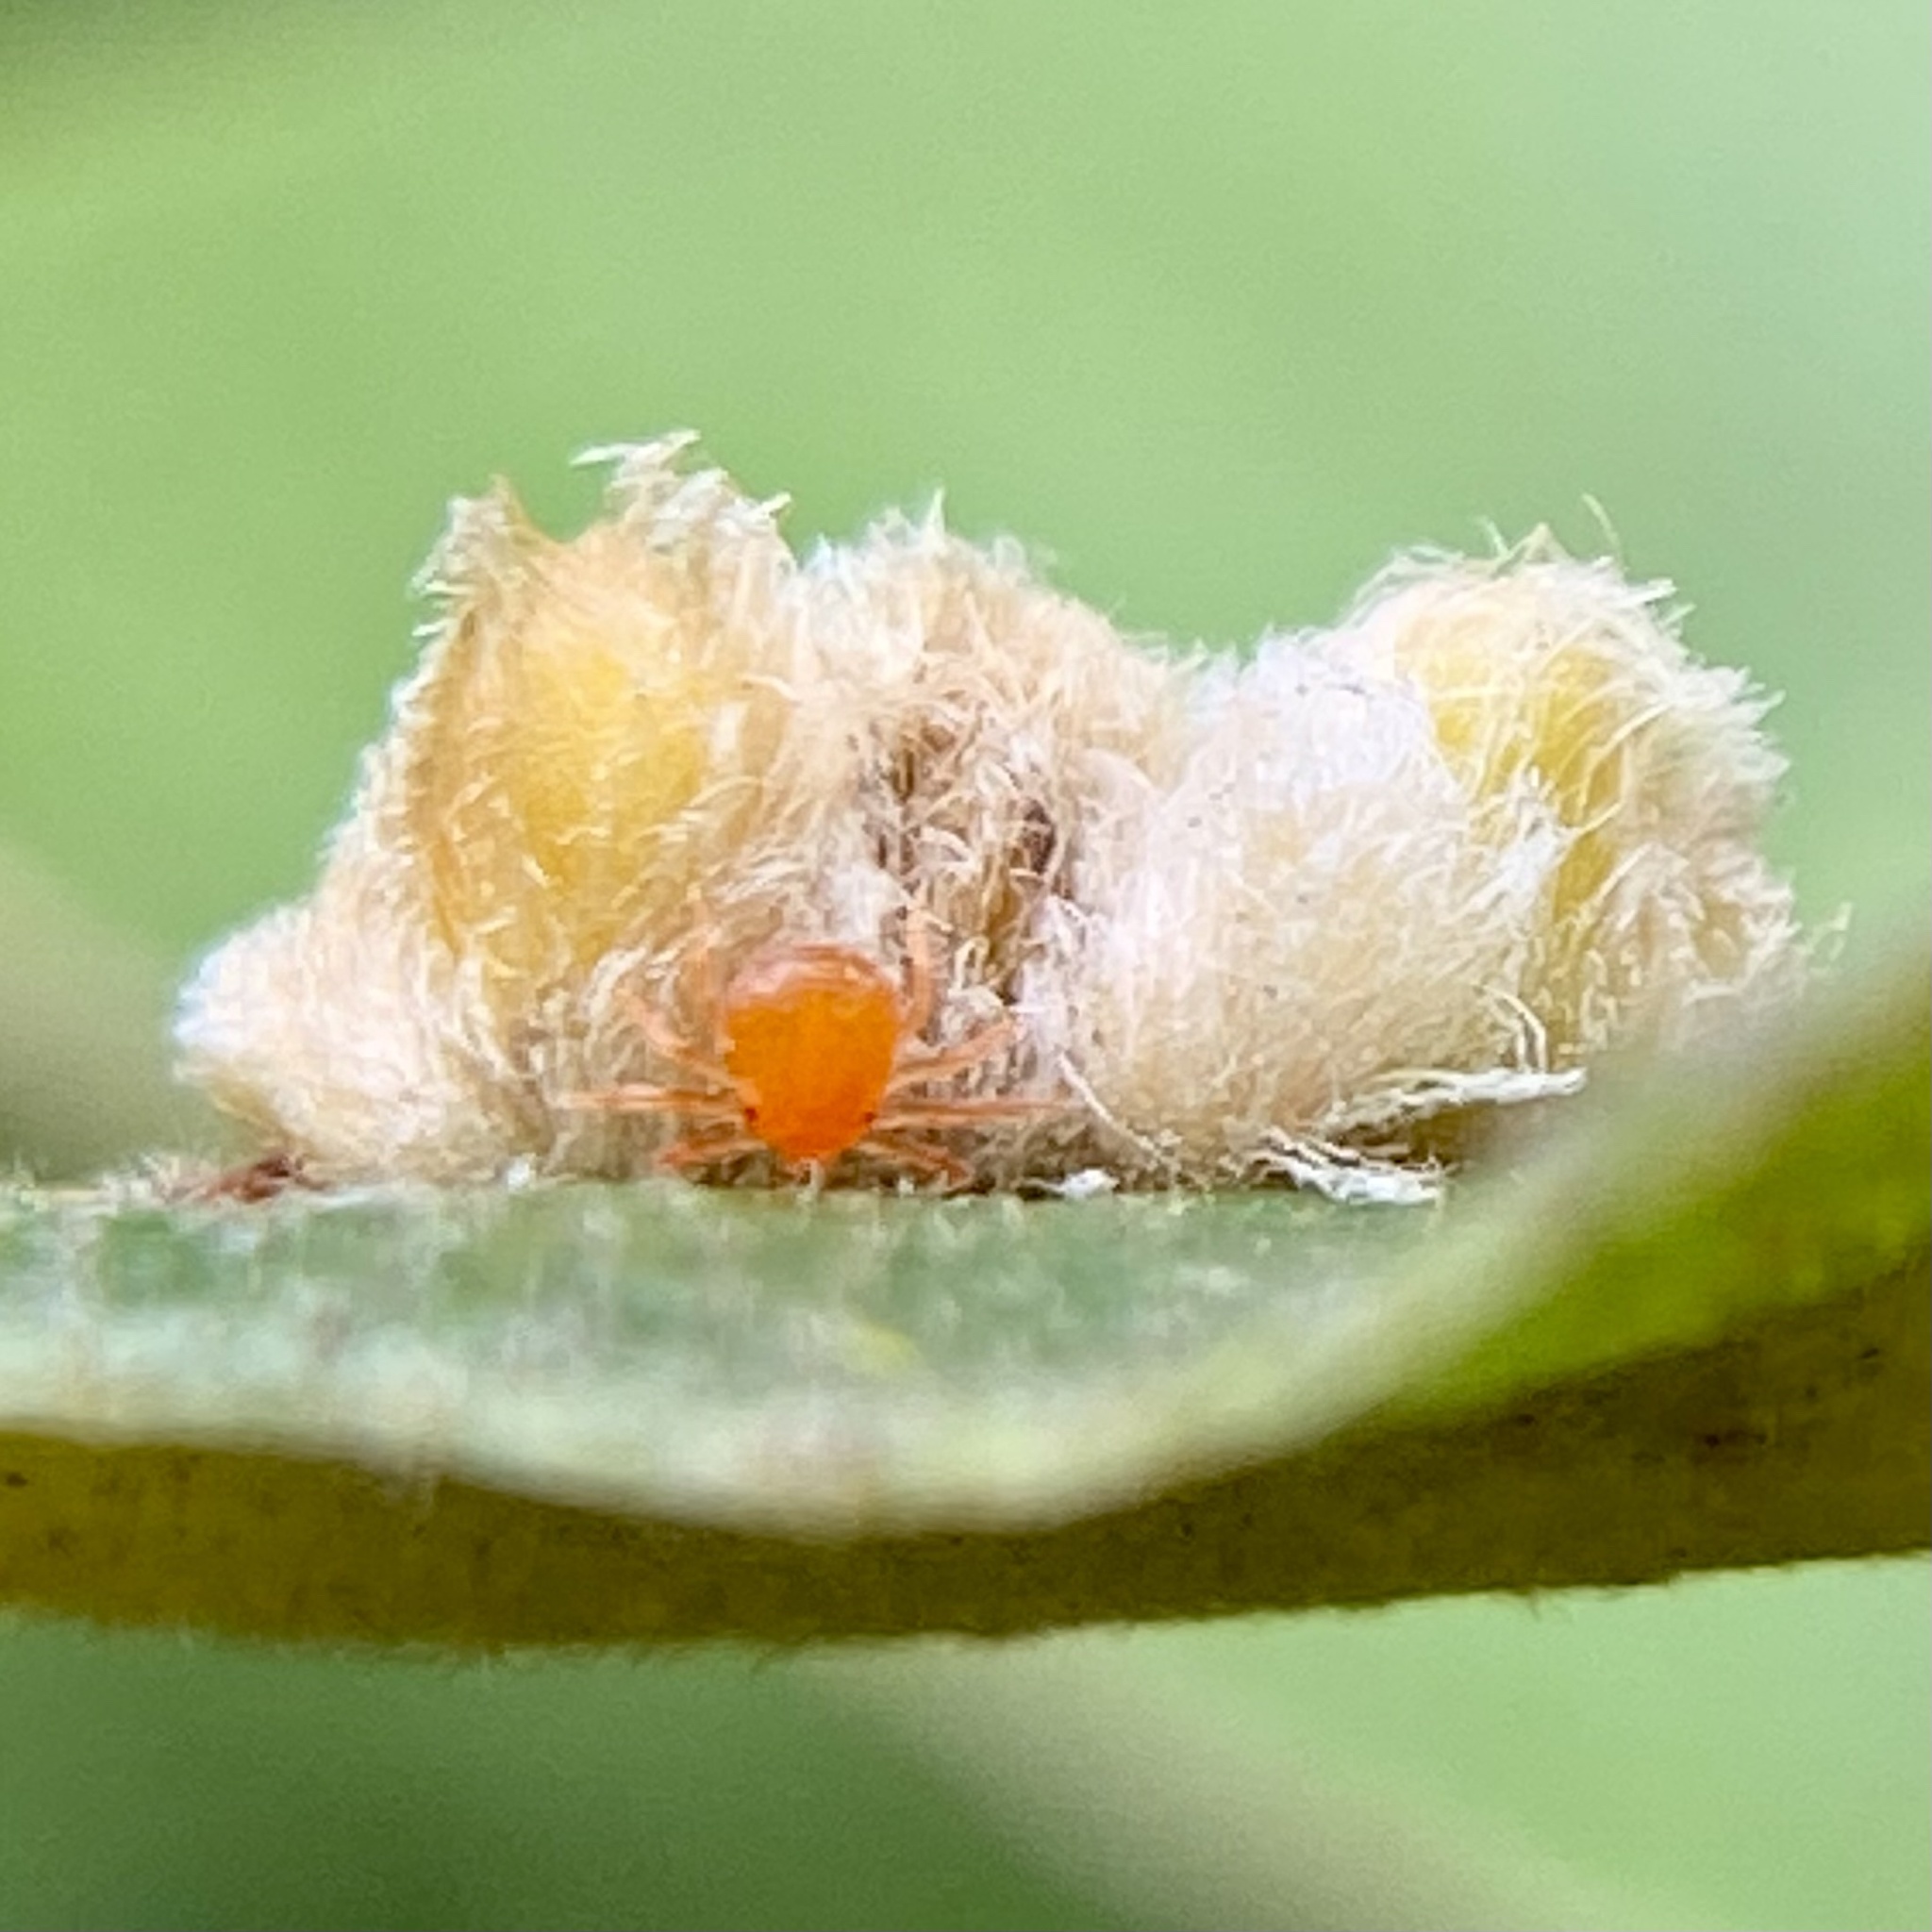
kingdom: Animalia
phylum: Arthropoda
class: Insecta
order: Hymenoptera
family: Cynipidae
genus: Andricus
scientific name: Andricus Druon pattoni
